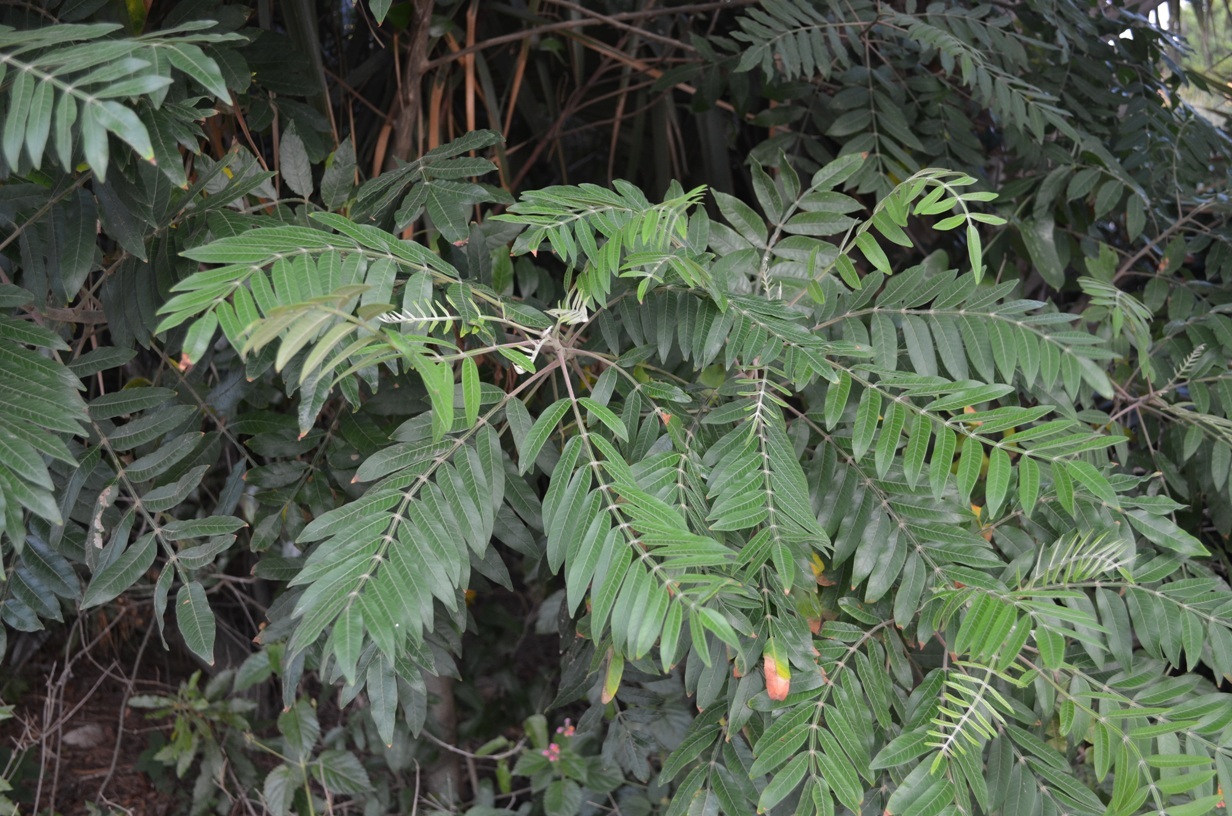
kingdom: Plantae
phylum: Tracheophyta
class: Magnoliopsida
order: Sapindales
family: Anacardiaceae
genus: Rhus
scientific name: Rhus copallina
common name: Shining sumac
